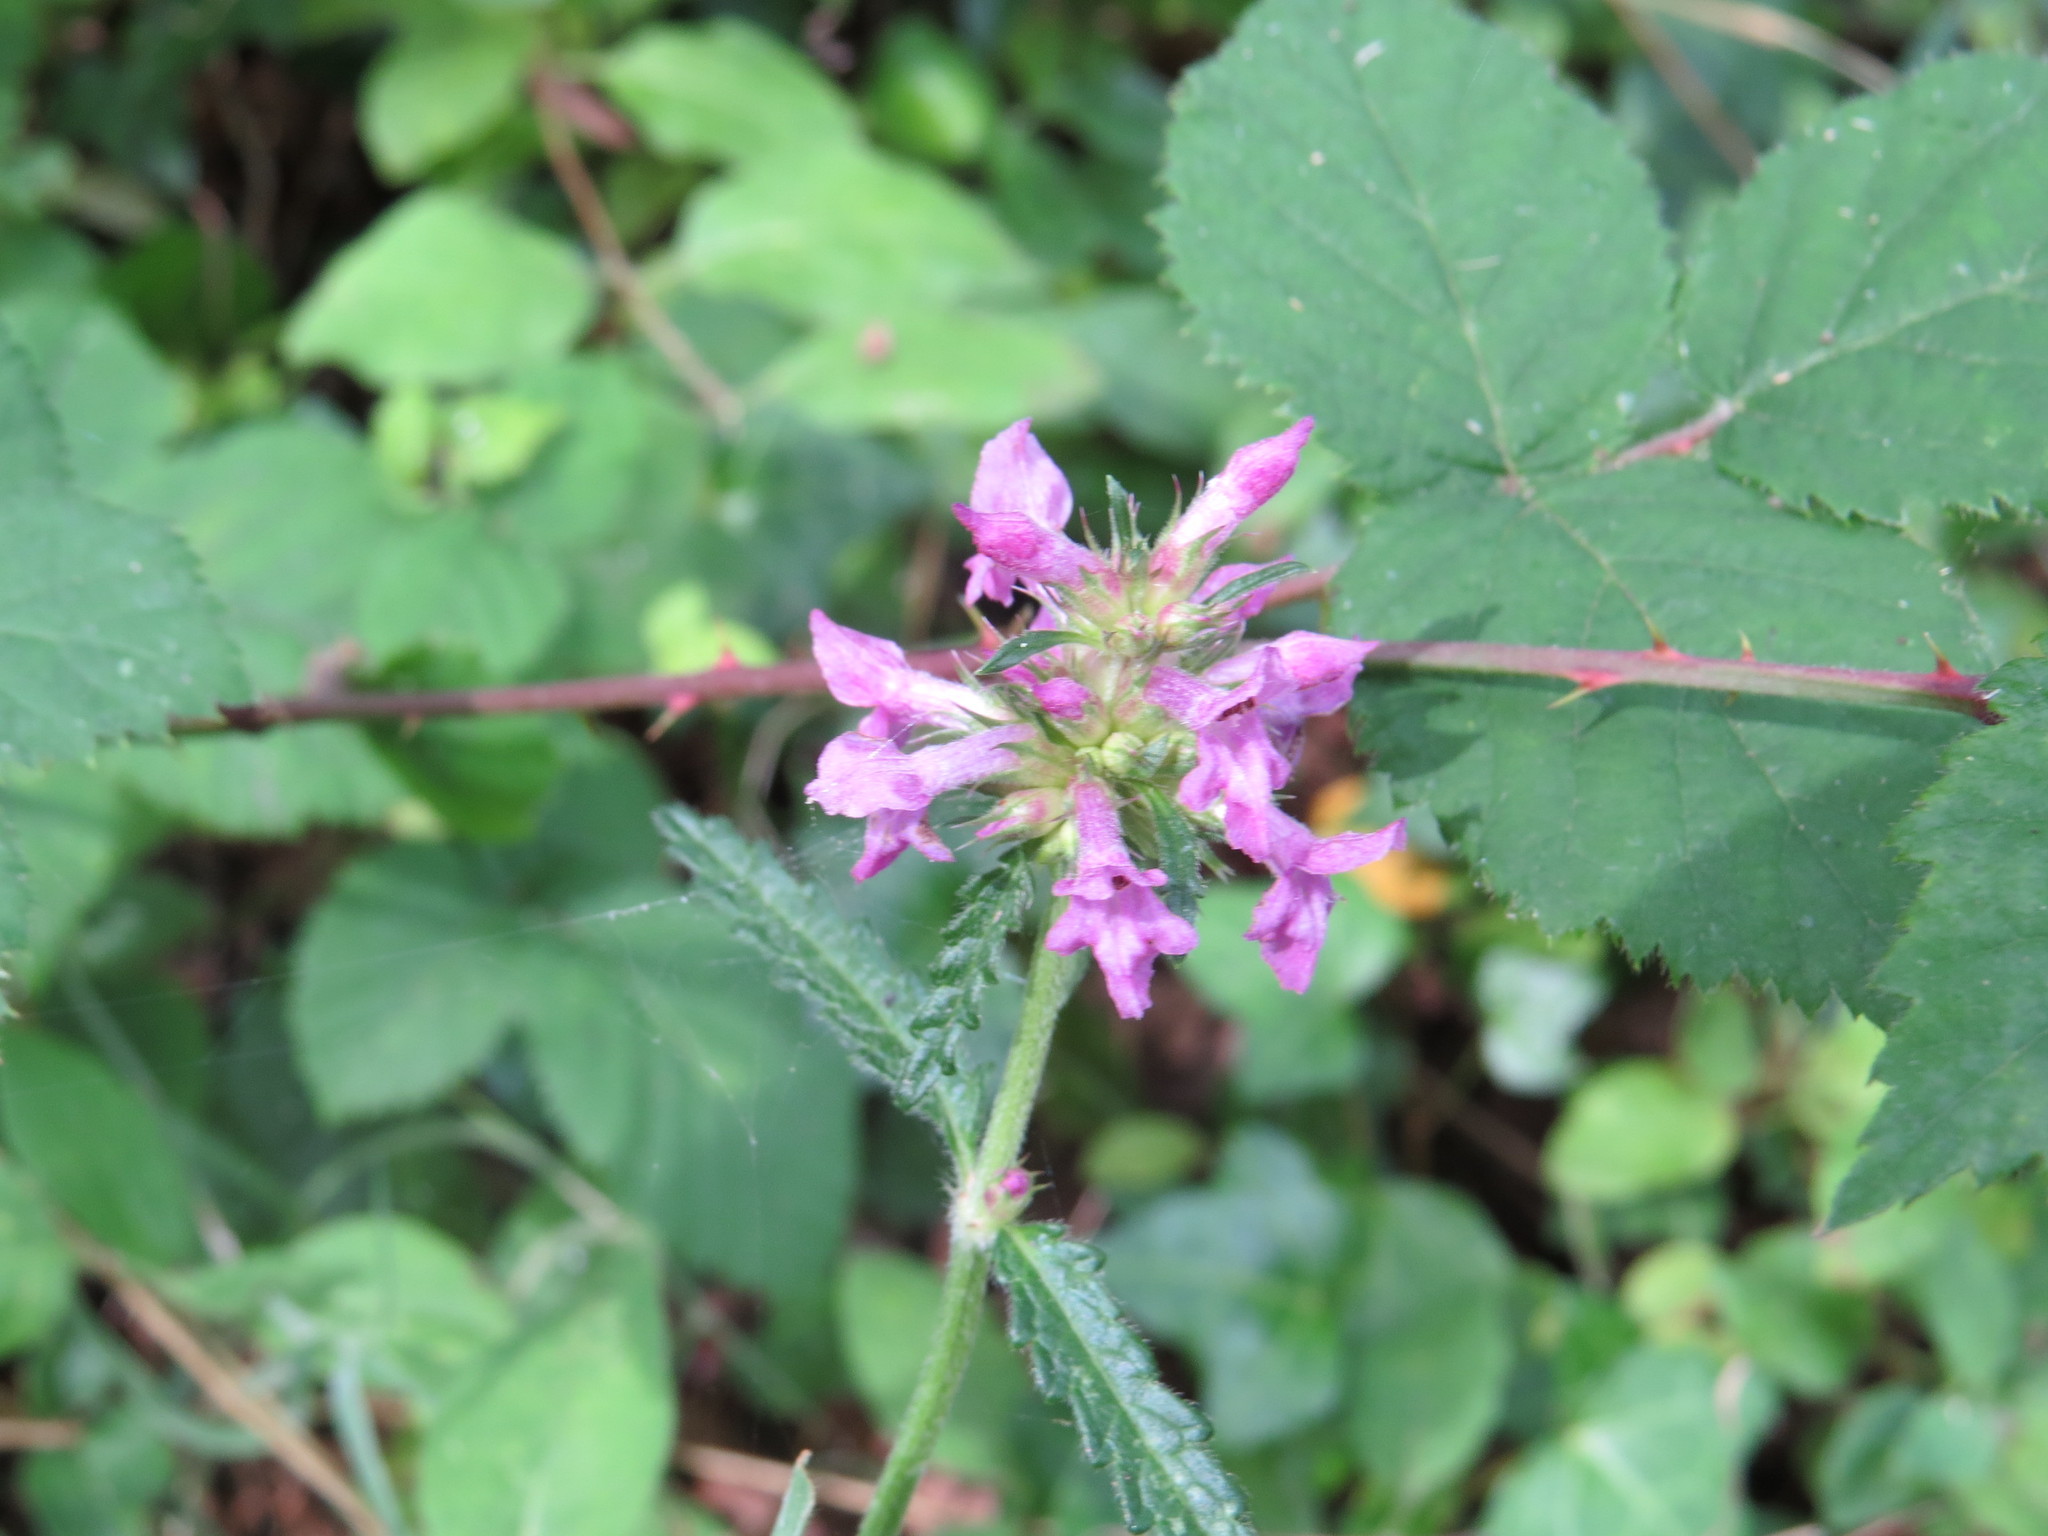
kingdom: Plantae
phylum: Tracheophyta
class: Magnoliopsida
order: Lamiales
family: Lamiaceae
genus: Betonica
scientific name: Betonica officinalis
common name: Bishop's-wort
